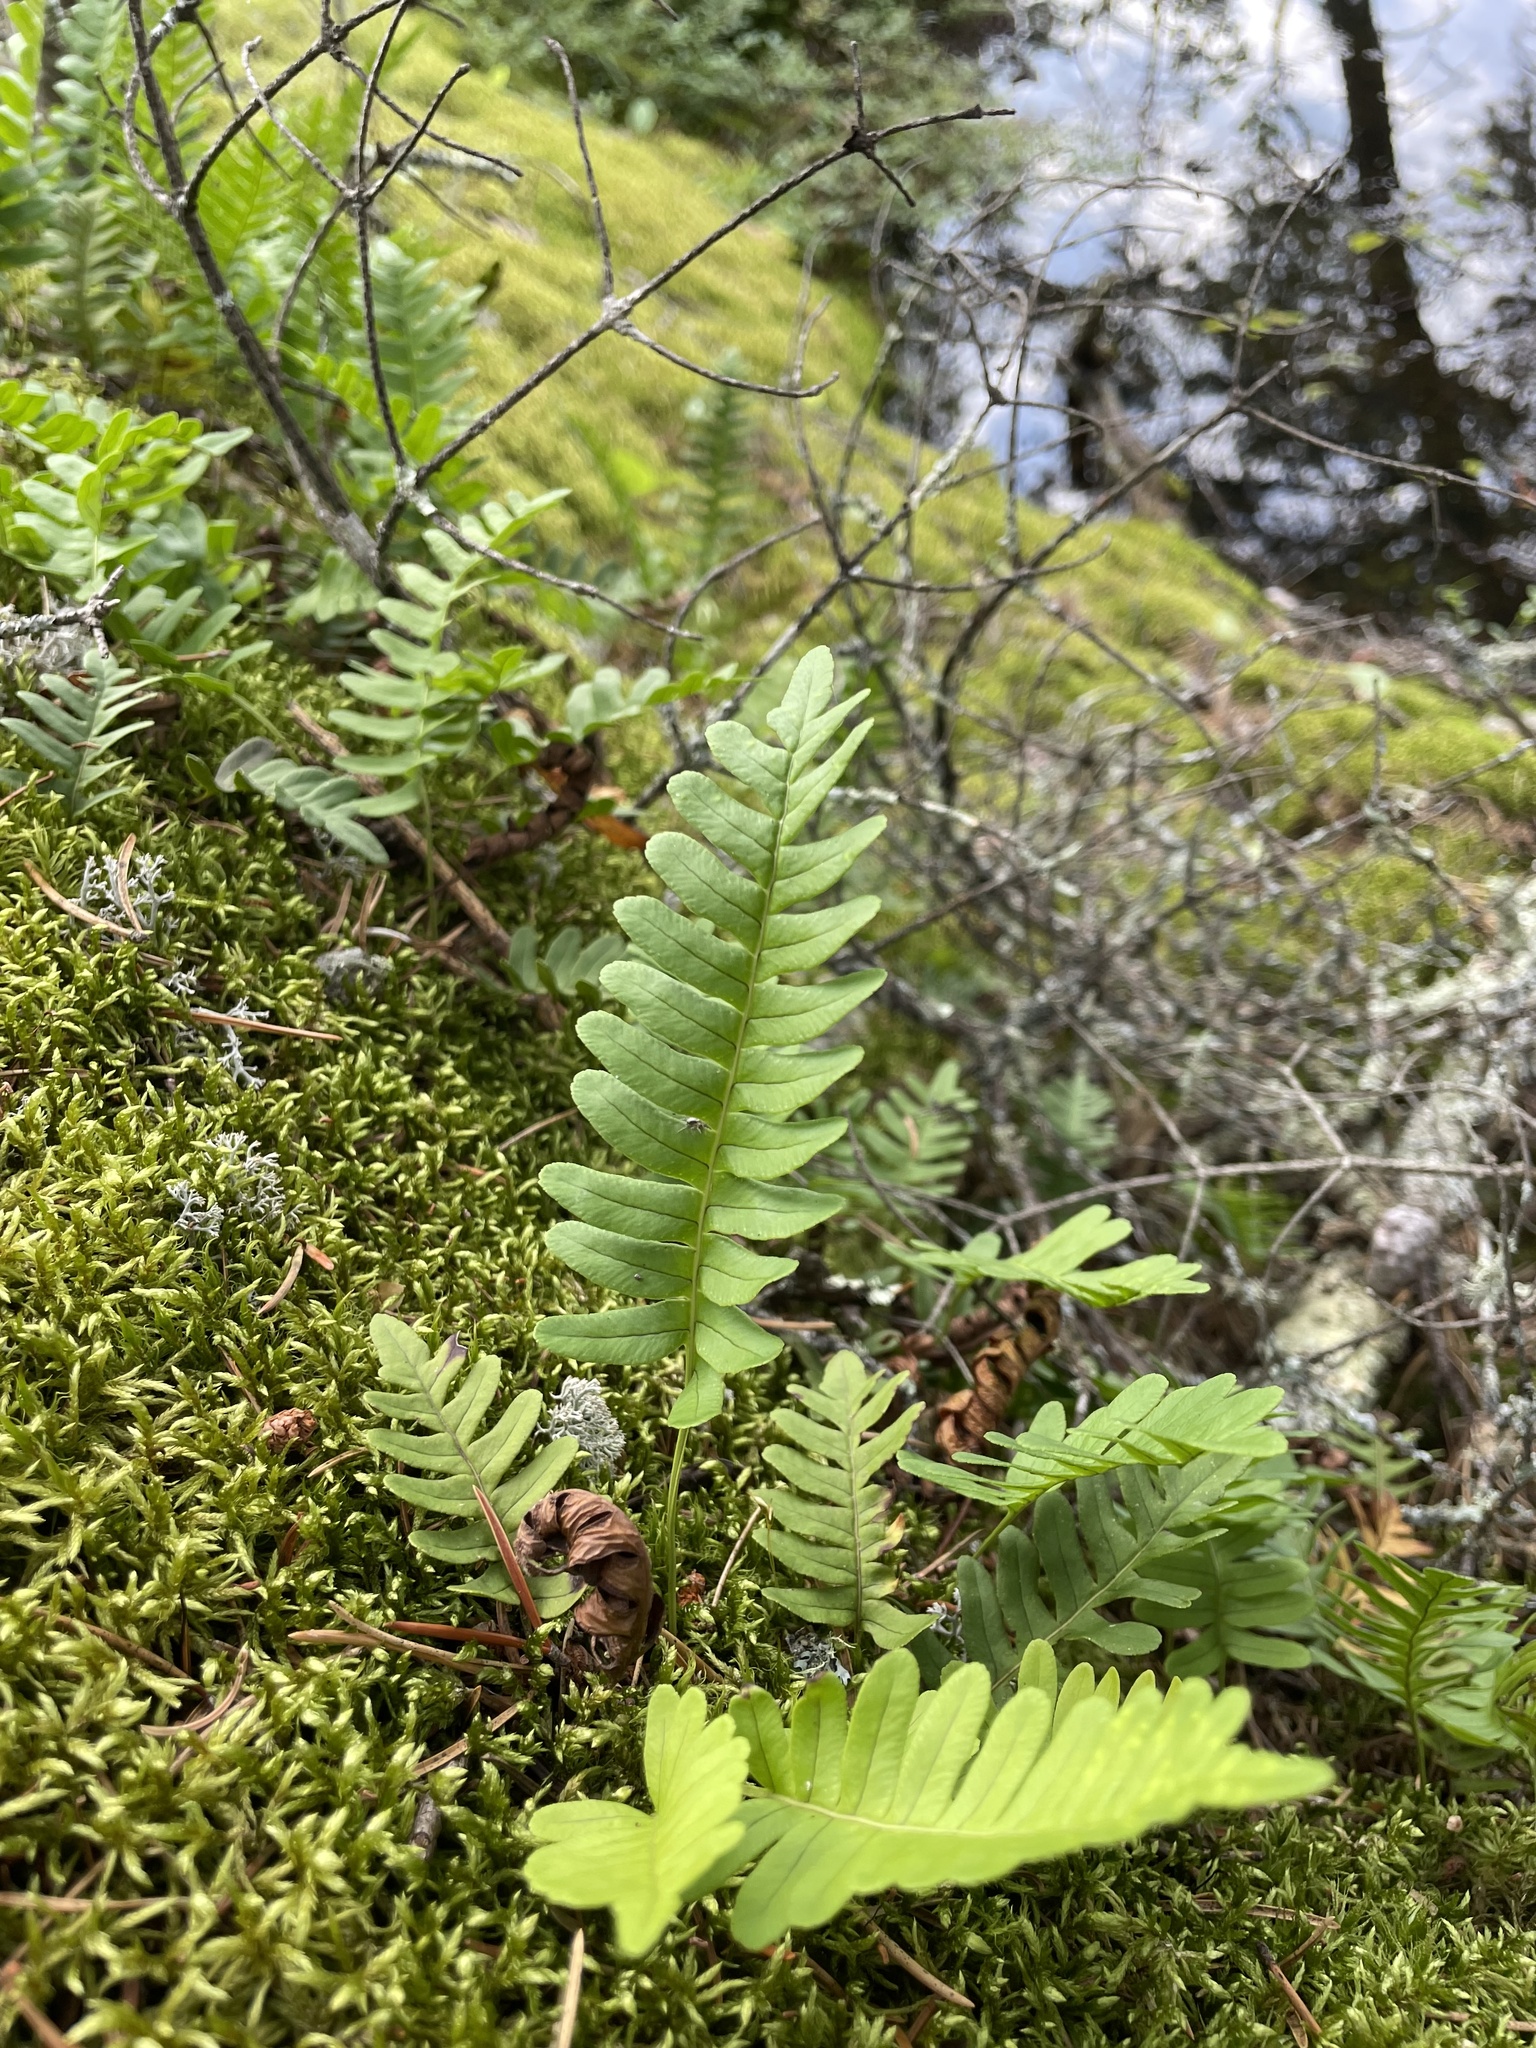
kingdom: Plantae
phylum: Tracheophyta
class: Polypodiopsida
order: Polypodiales
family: Polypodiaceae
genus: Polypodium
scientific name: Polypodium virginianum
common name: American wall fern
